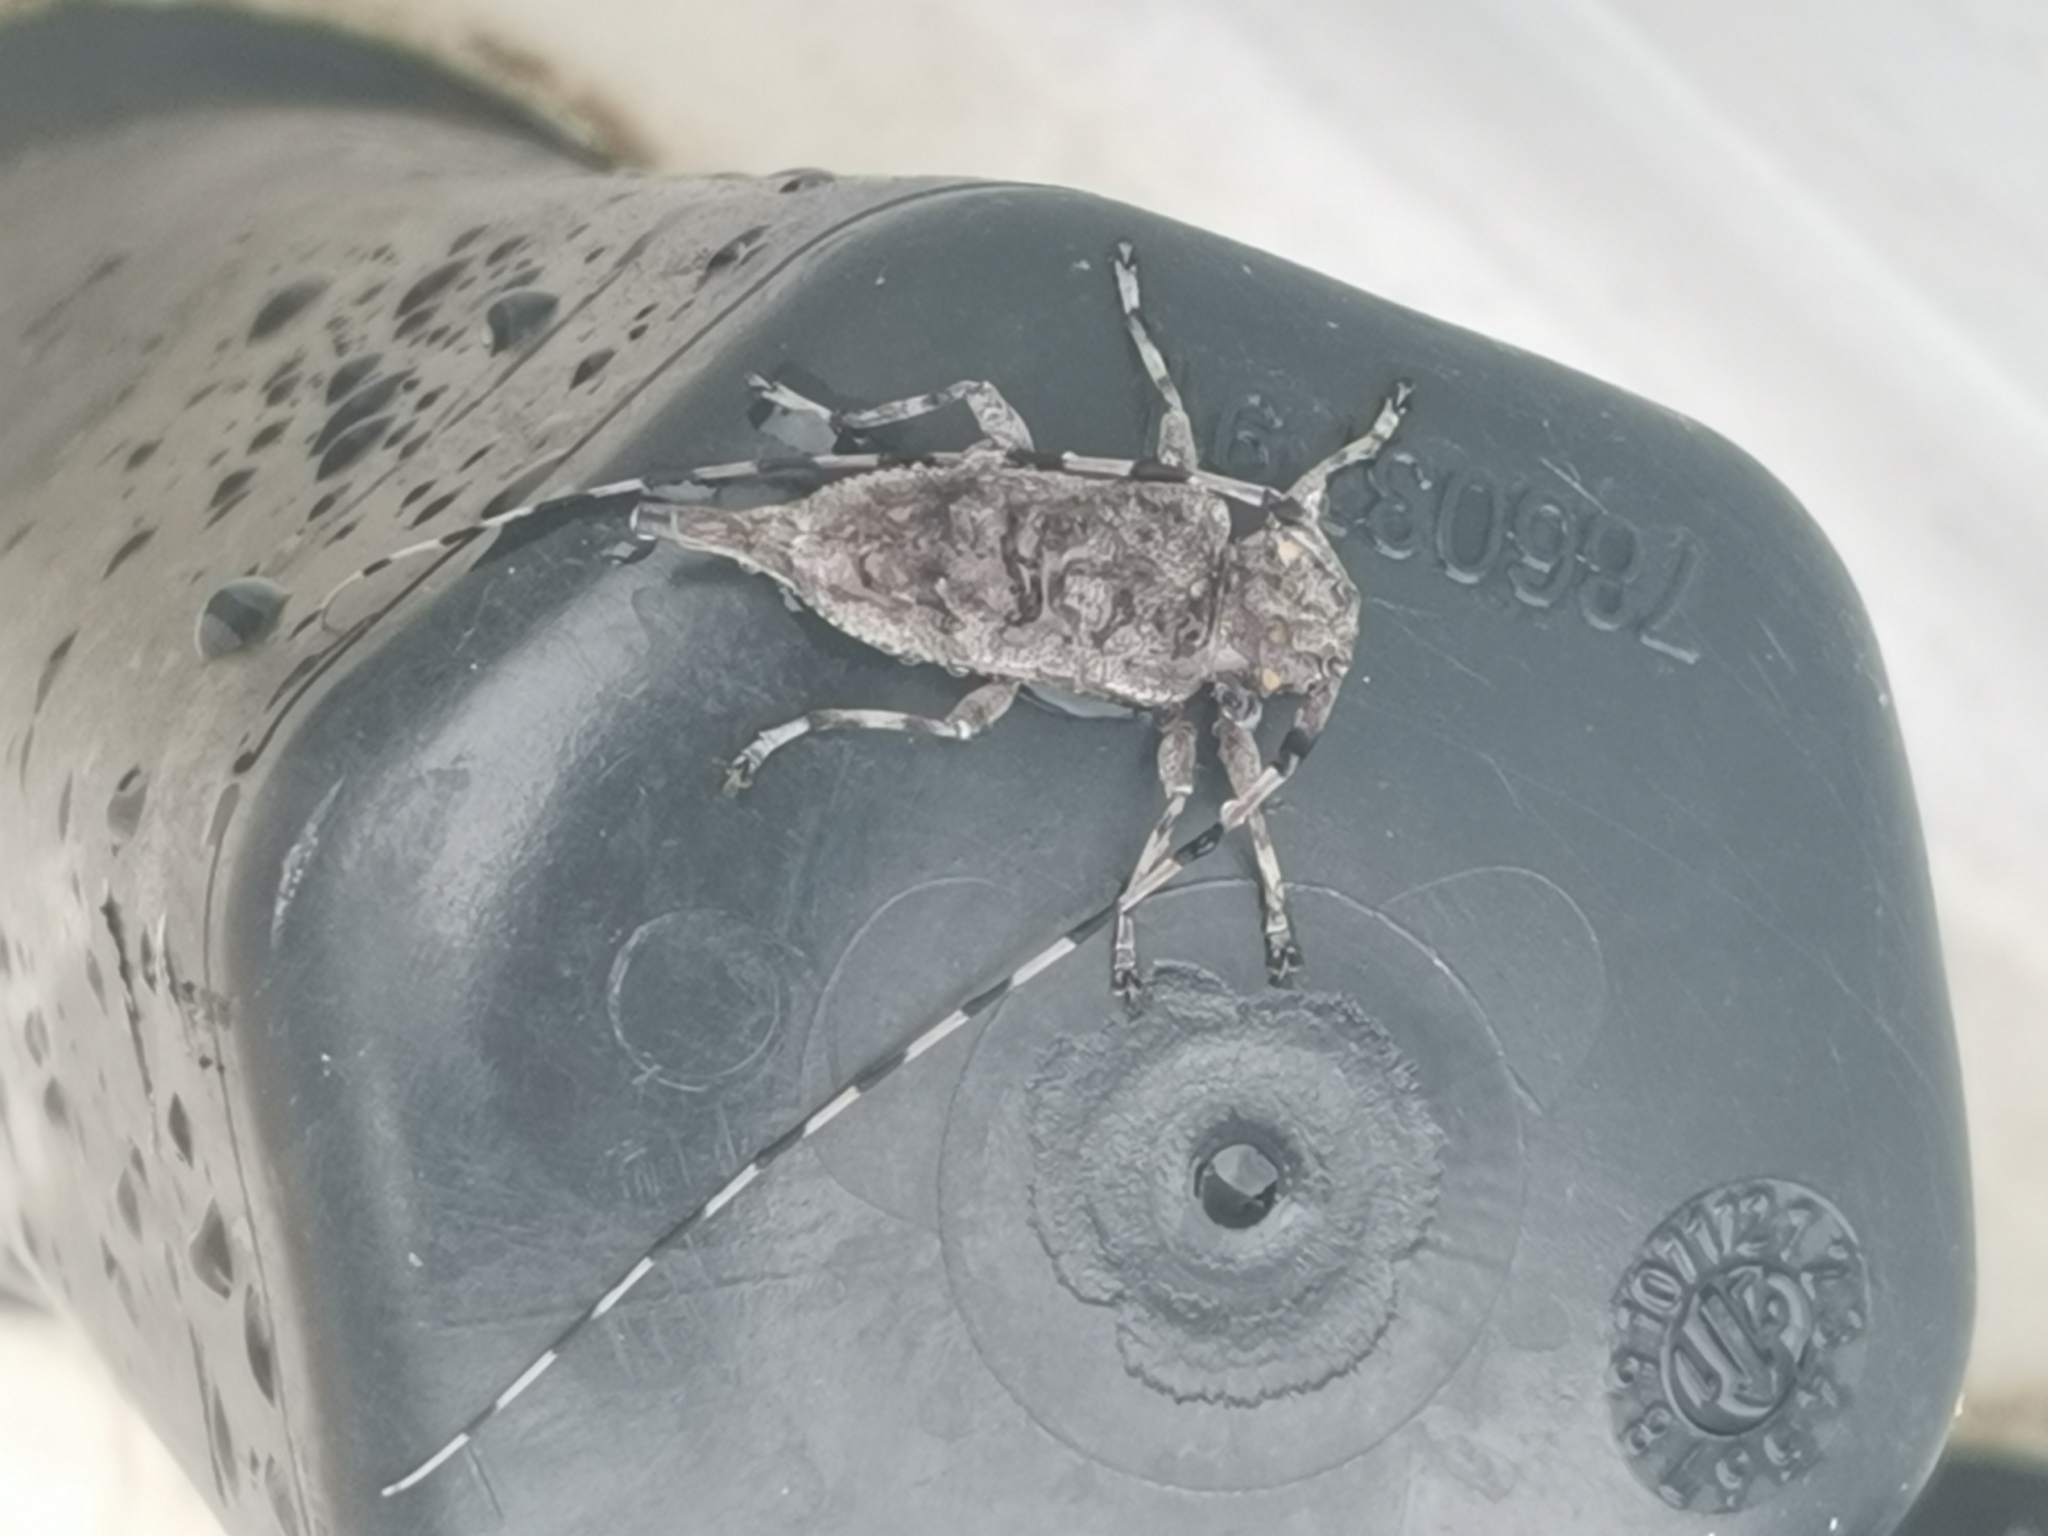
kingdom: Animalia
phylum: Arthropoda
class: Insecta
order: Coleoptera
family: Cerambycidae
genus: Acanthocinus
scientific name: Acanthocinus aedilis
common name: Timberman beetle
